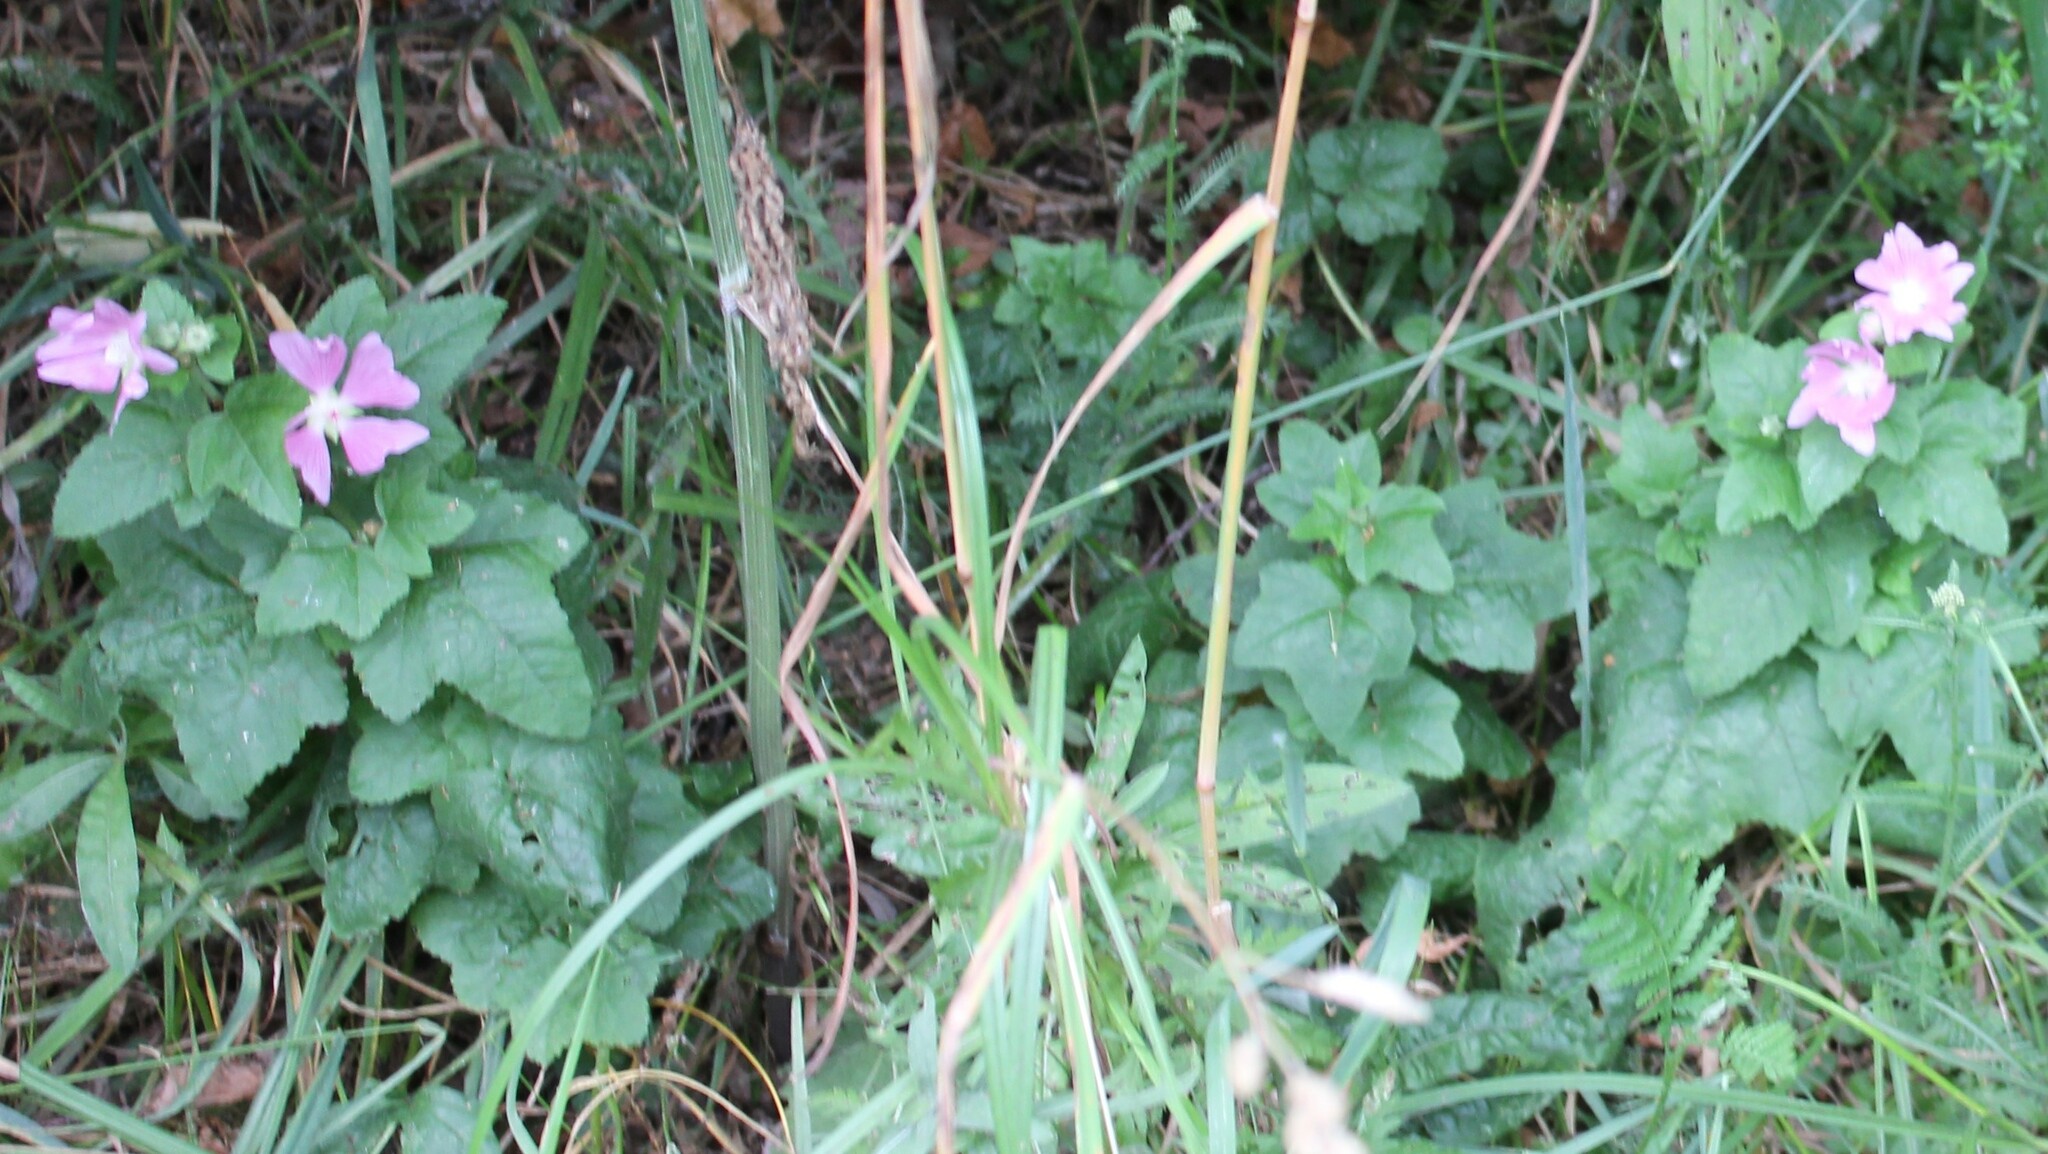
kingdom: Plantae
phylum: Tracheophyta
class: Magnoliopsida
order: Malvales
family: Malvaceae
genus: Malva
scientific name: Malva thuringiaca
